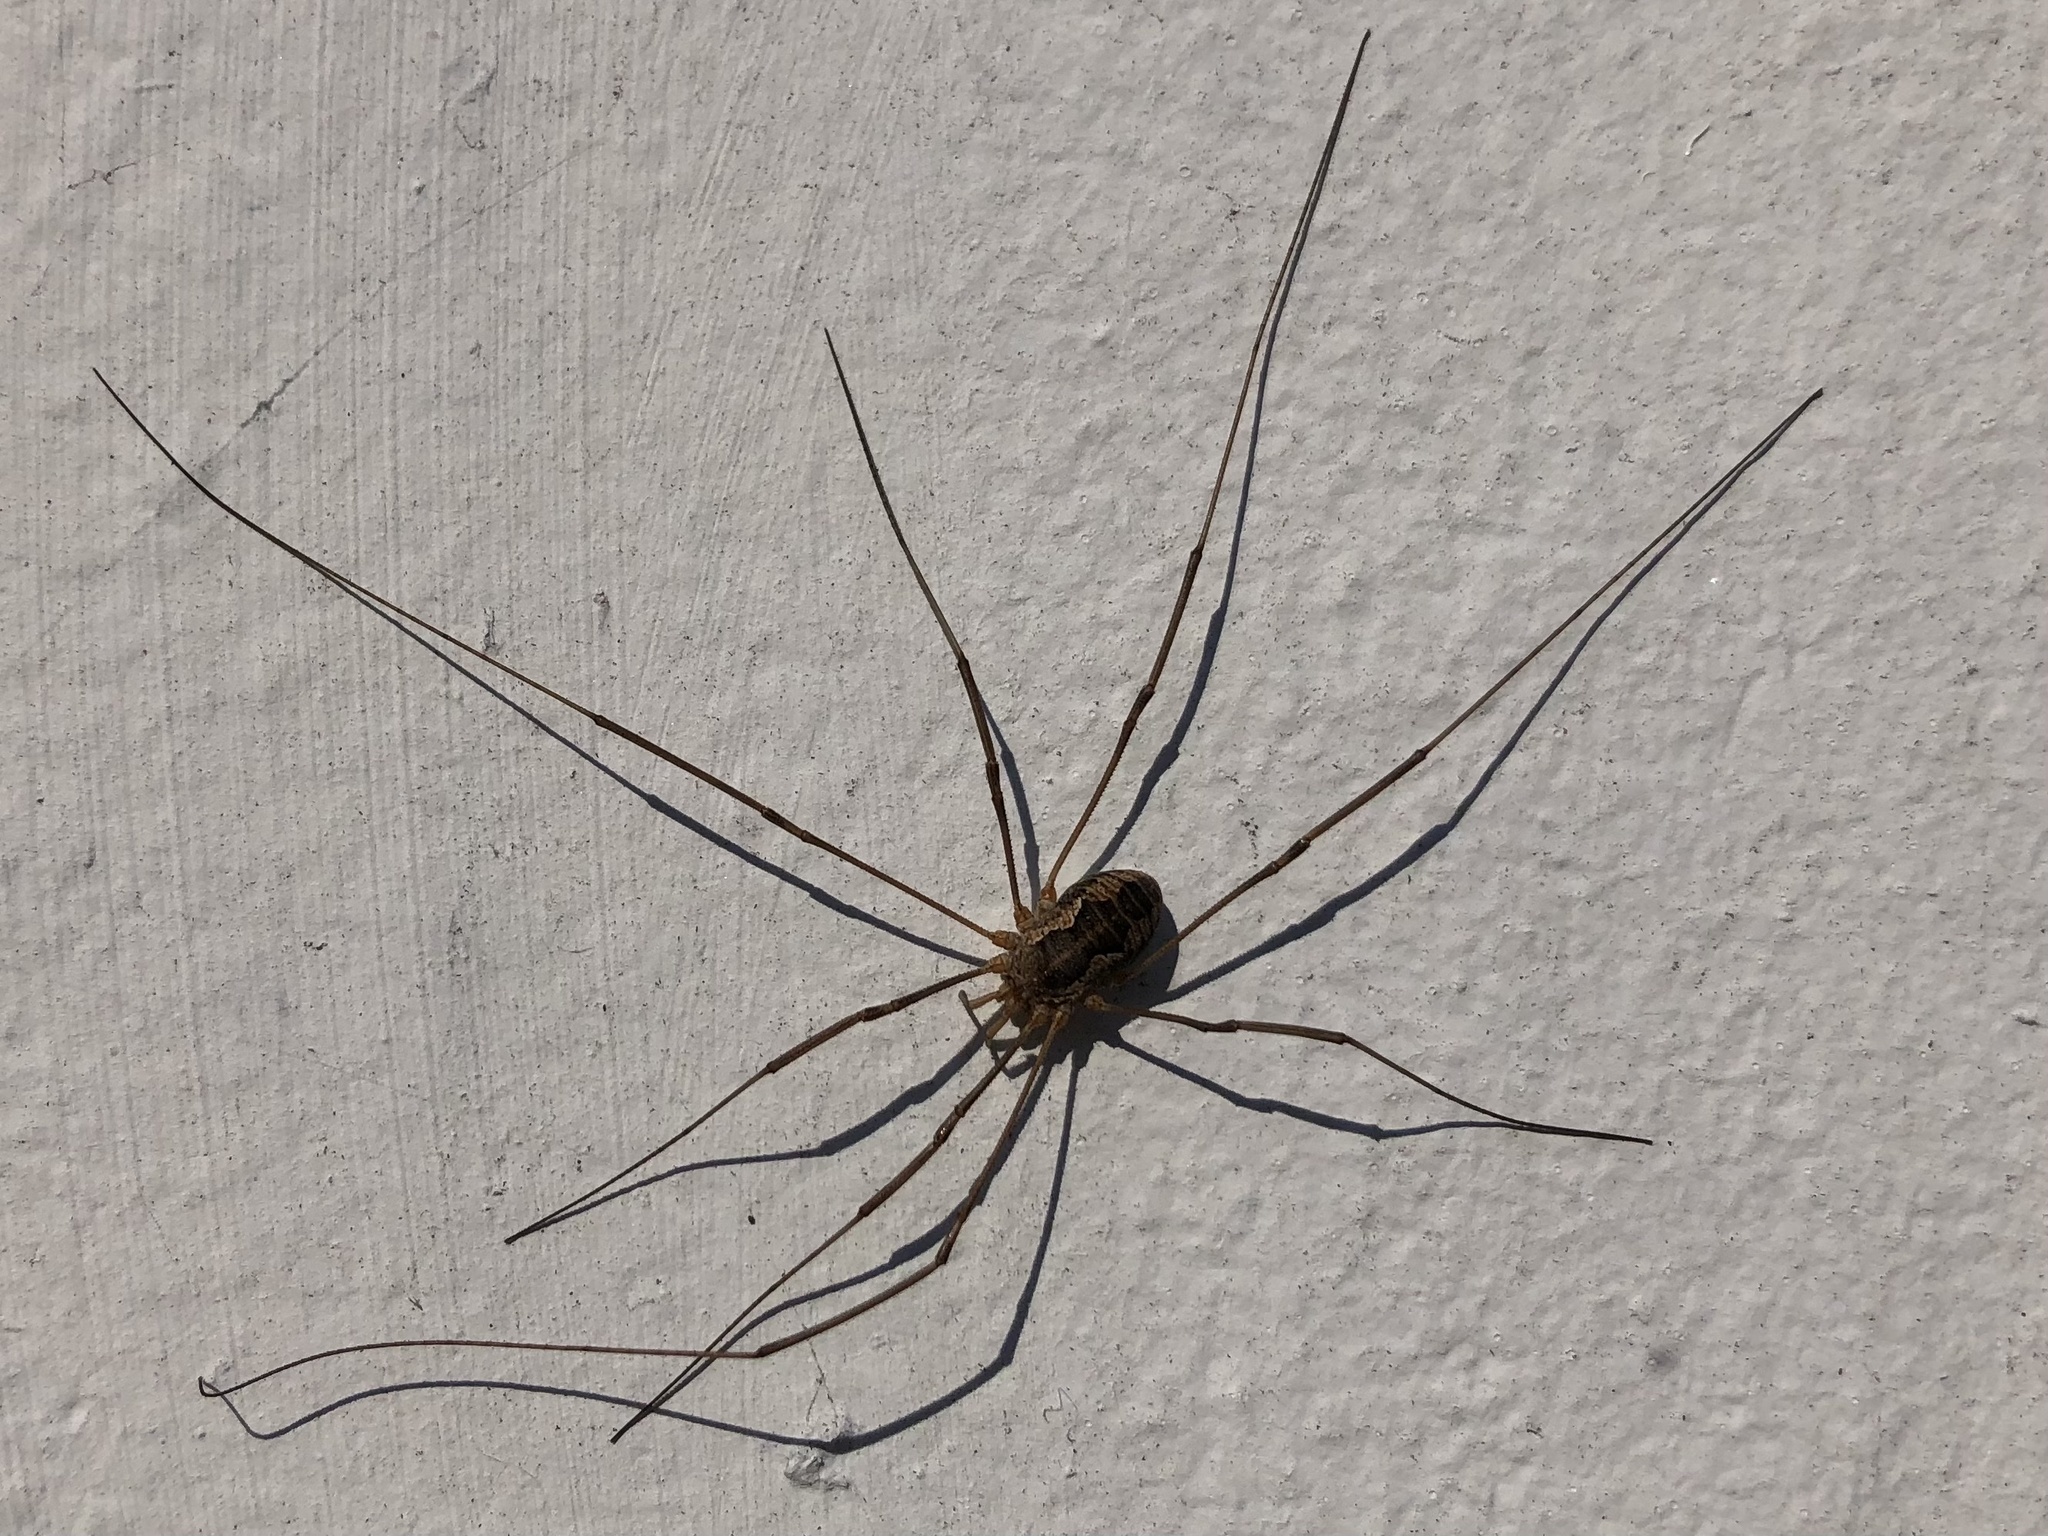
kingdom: Animalia
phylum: Arthropoda
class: Arachnida
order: Opiliones
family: Phalangiidae
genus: Phalangium
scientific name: Phalangium opilio
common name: Daddy longleg
